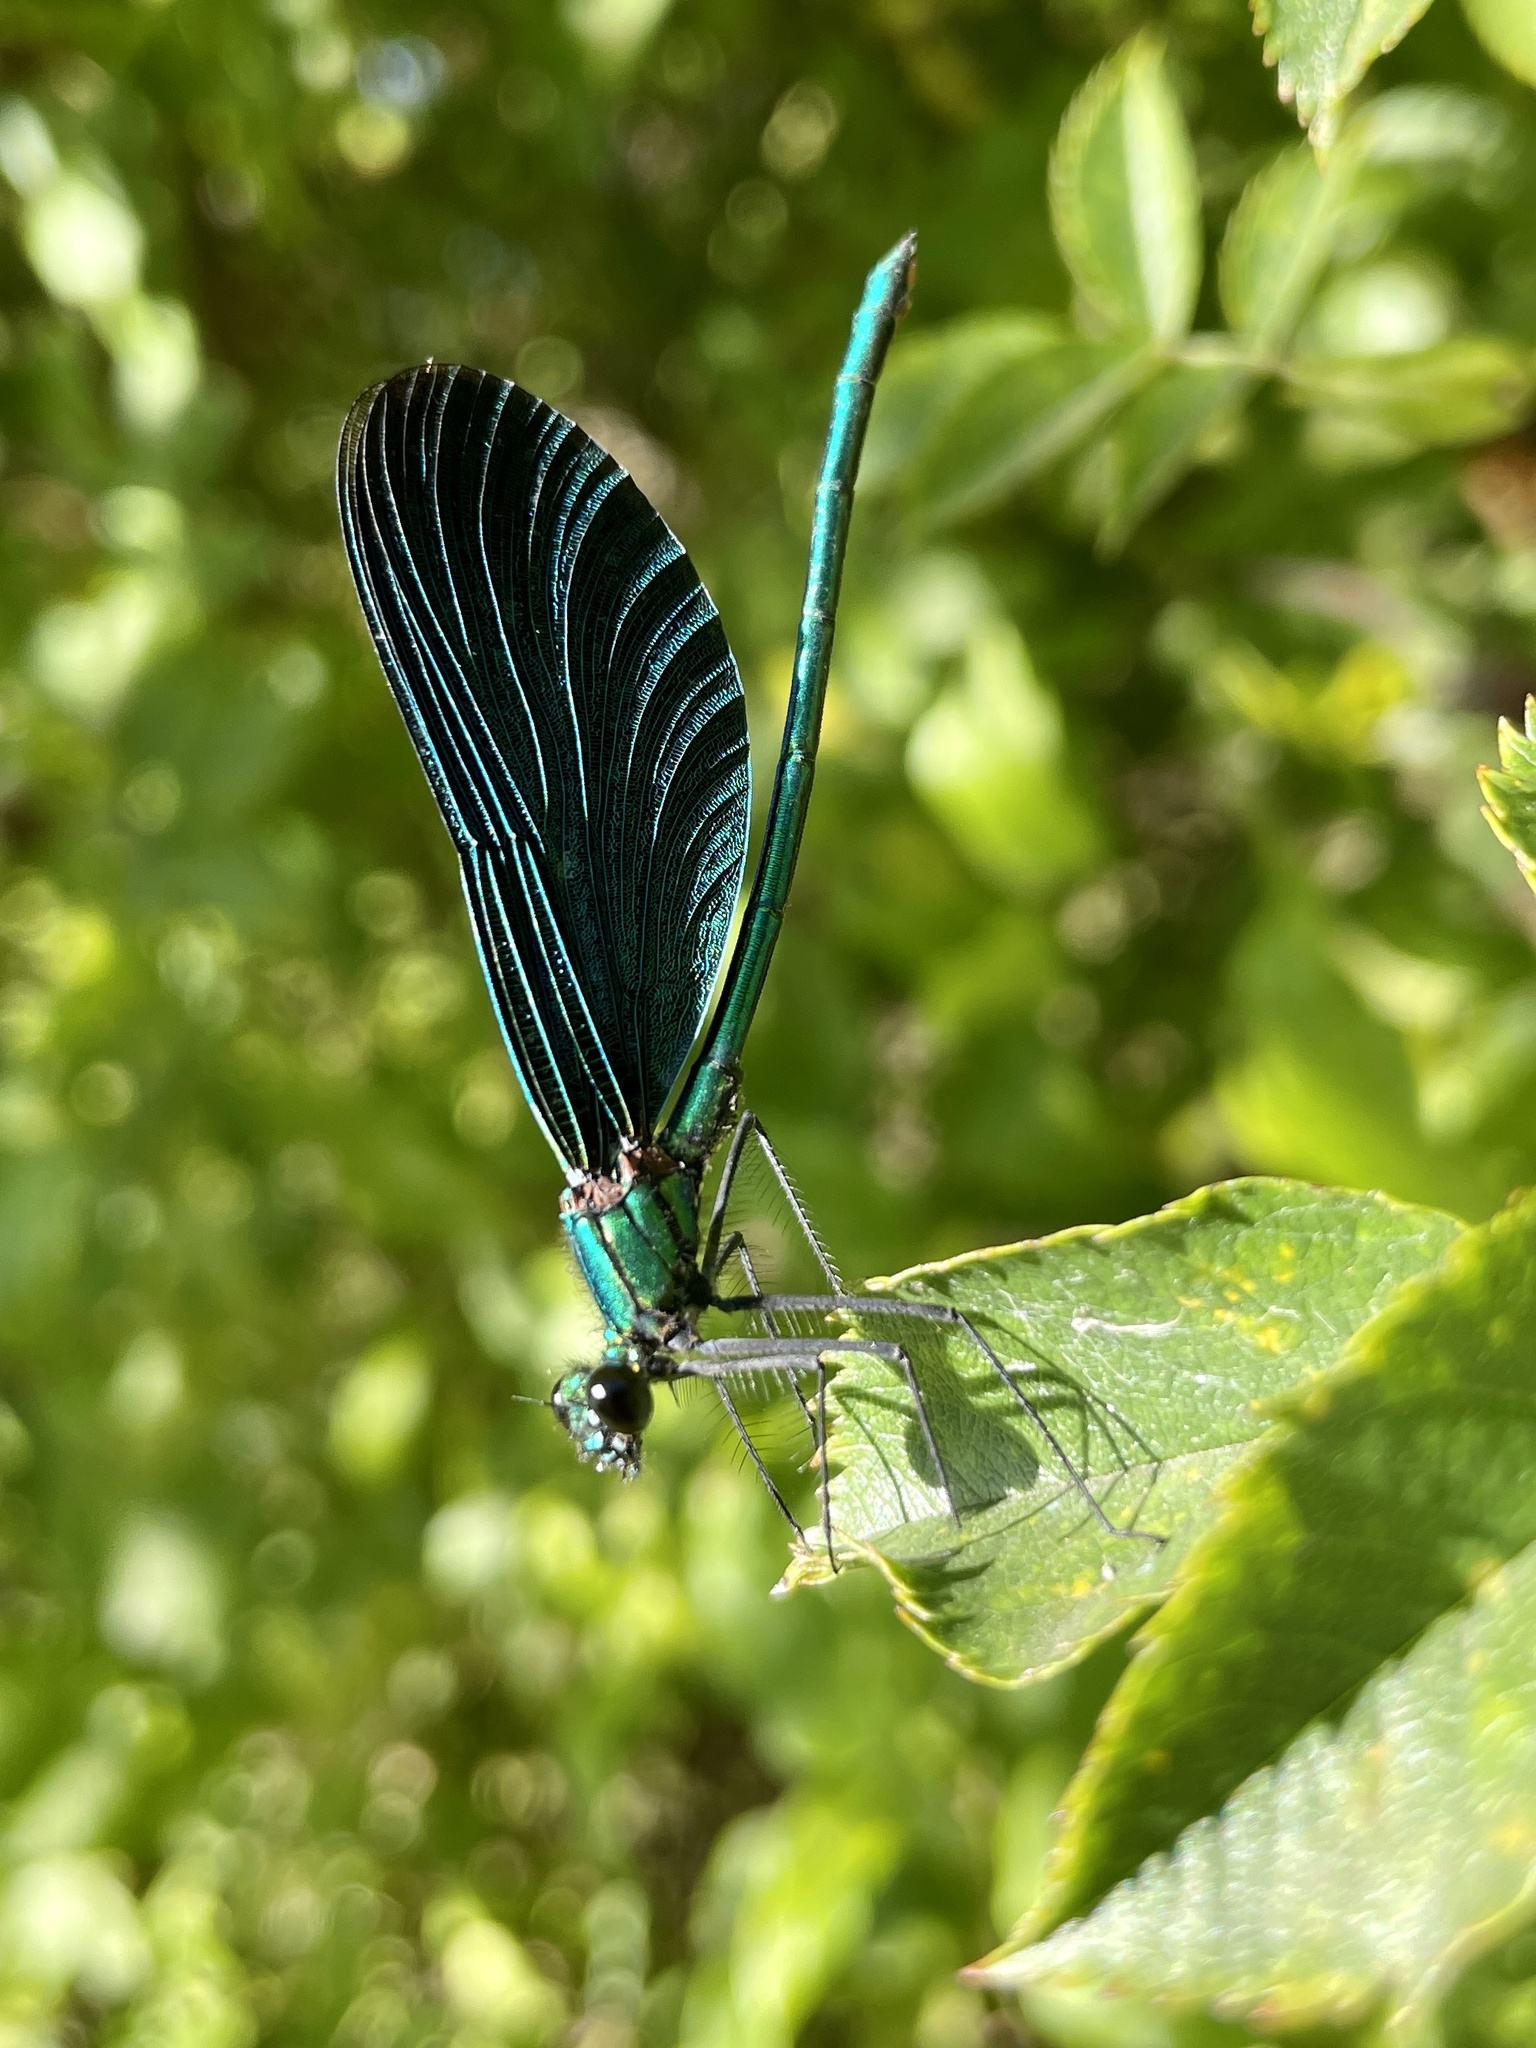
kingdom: Animalia
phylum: Arthropoda
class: Insecta
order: Odonata
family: Calopterygidae
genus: Calopteryx
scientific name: Calopteryx virgo
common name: Beautiful demoiselle
